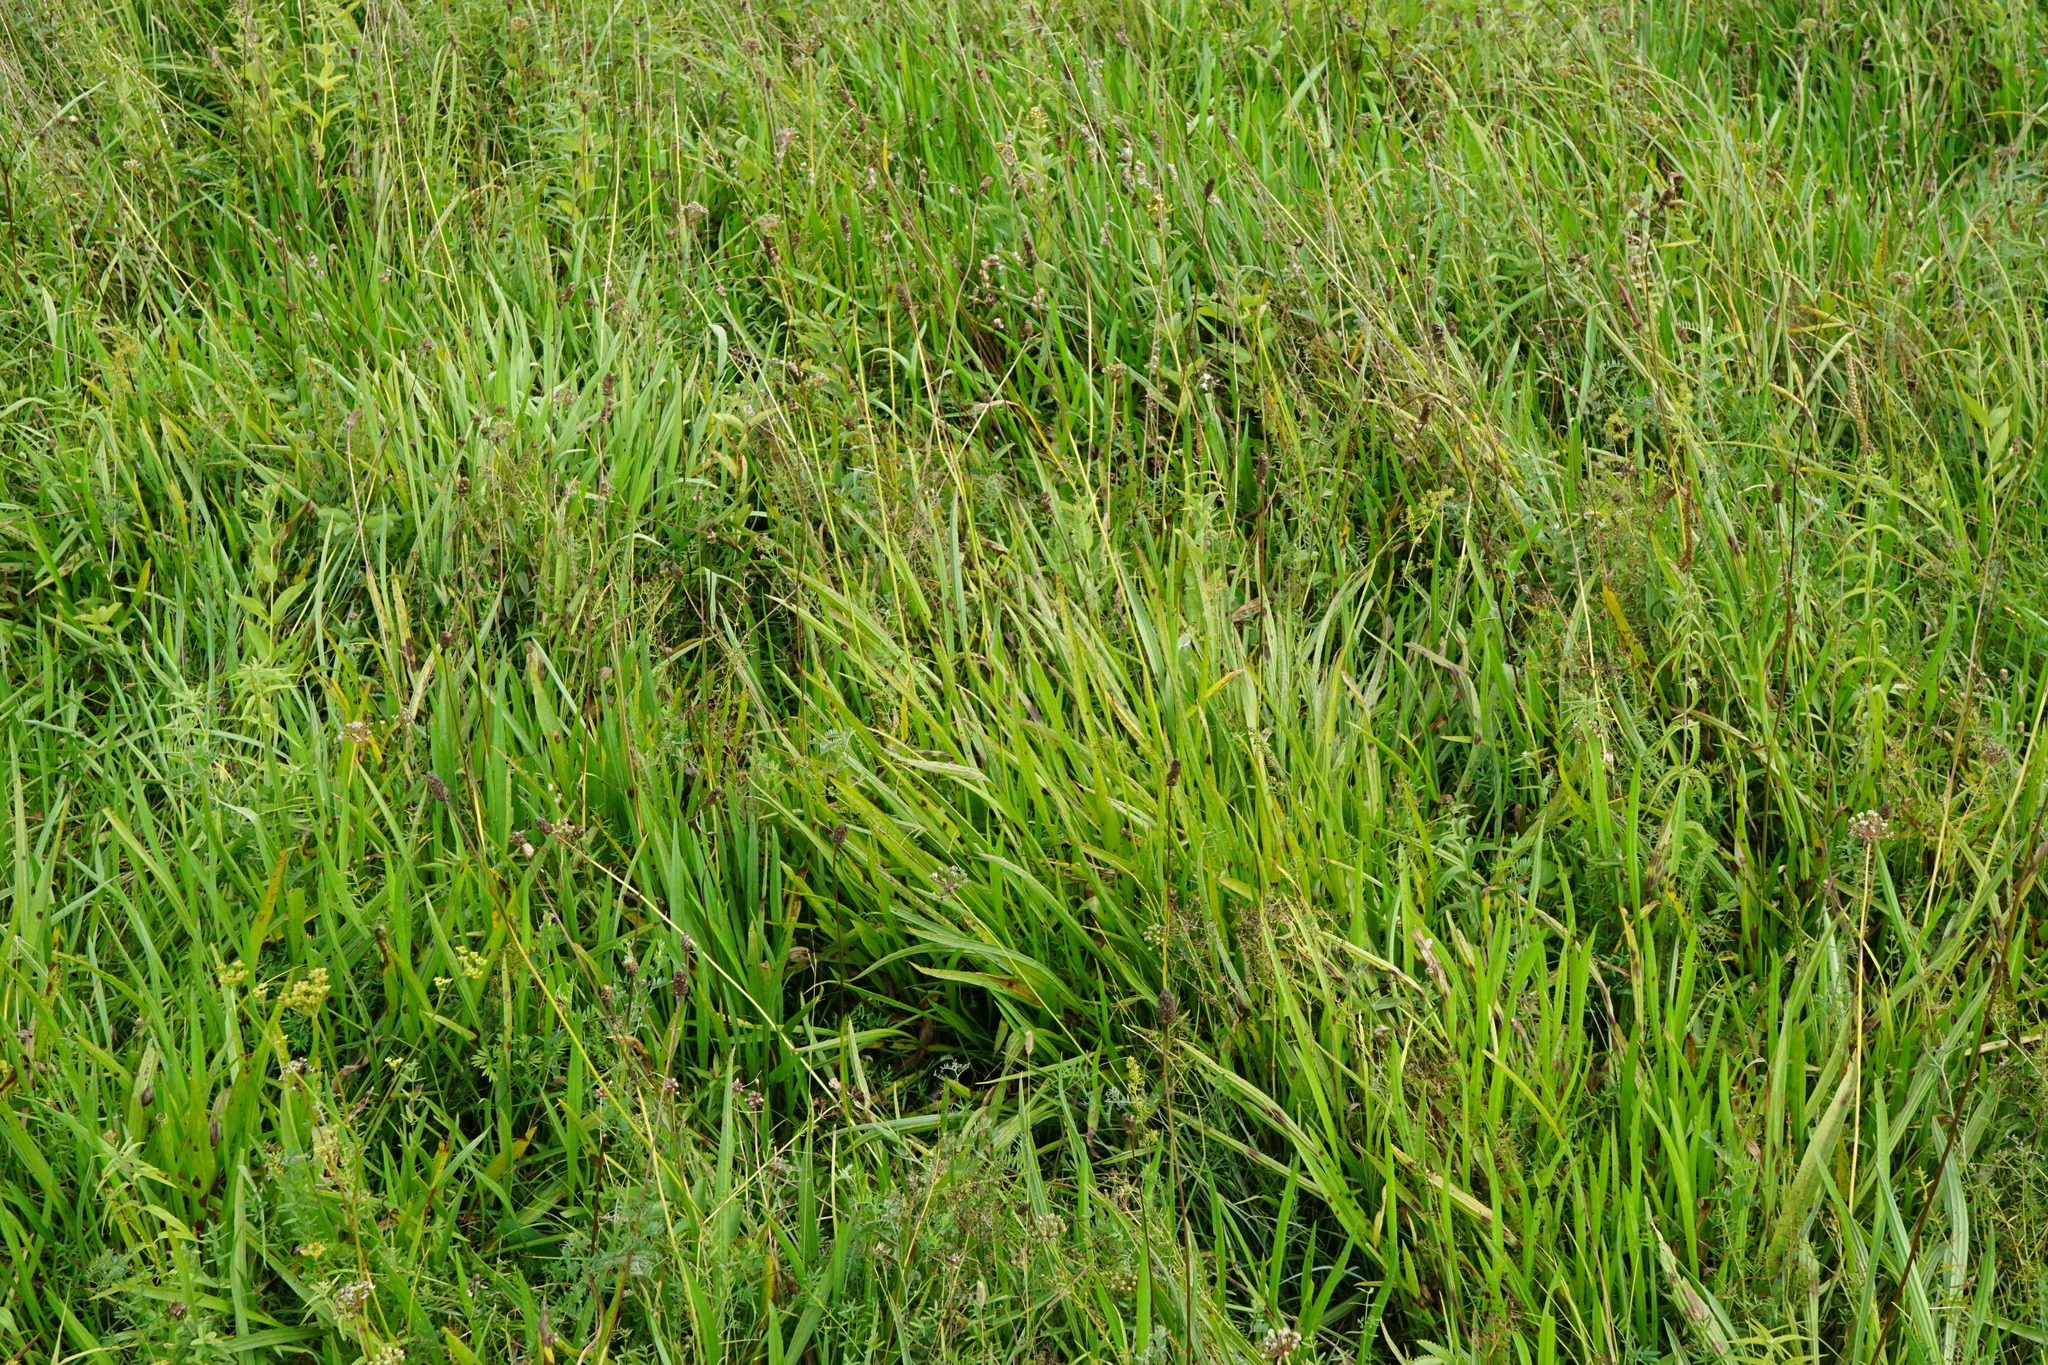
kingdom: Plantae
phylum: Tracheophyta
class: Magnoliopsida
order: Lamiales
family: Plantaginaceae
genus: Plantago
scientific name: Plantago altissima
